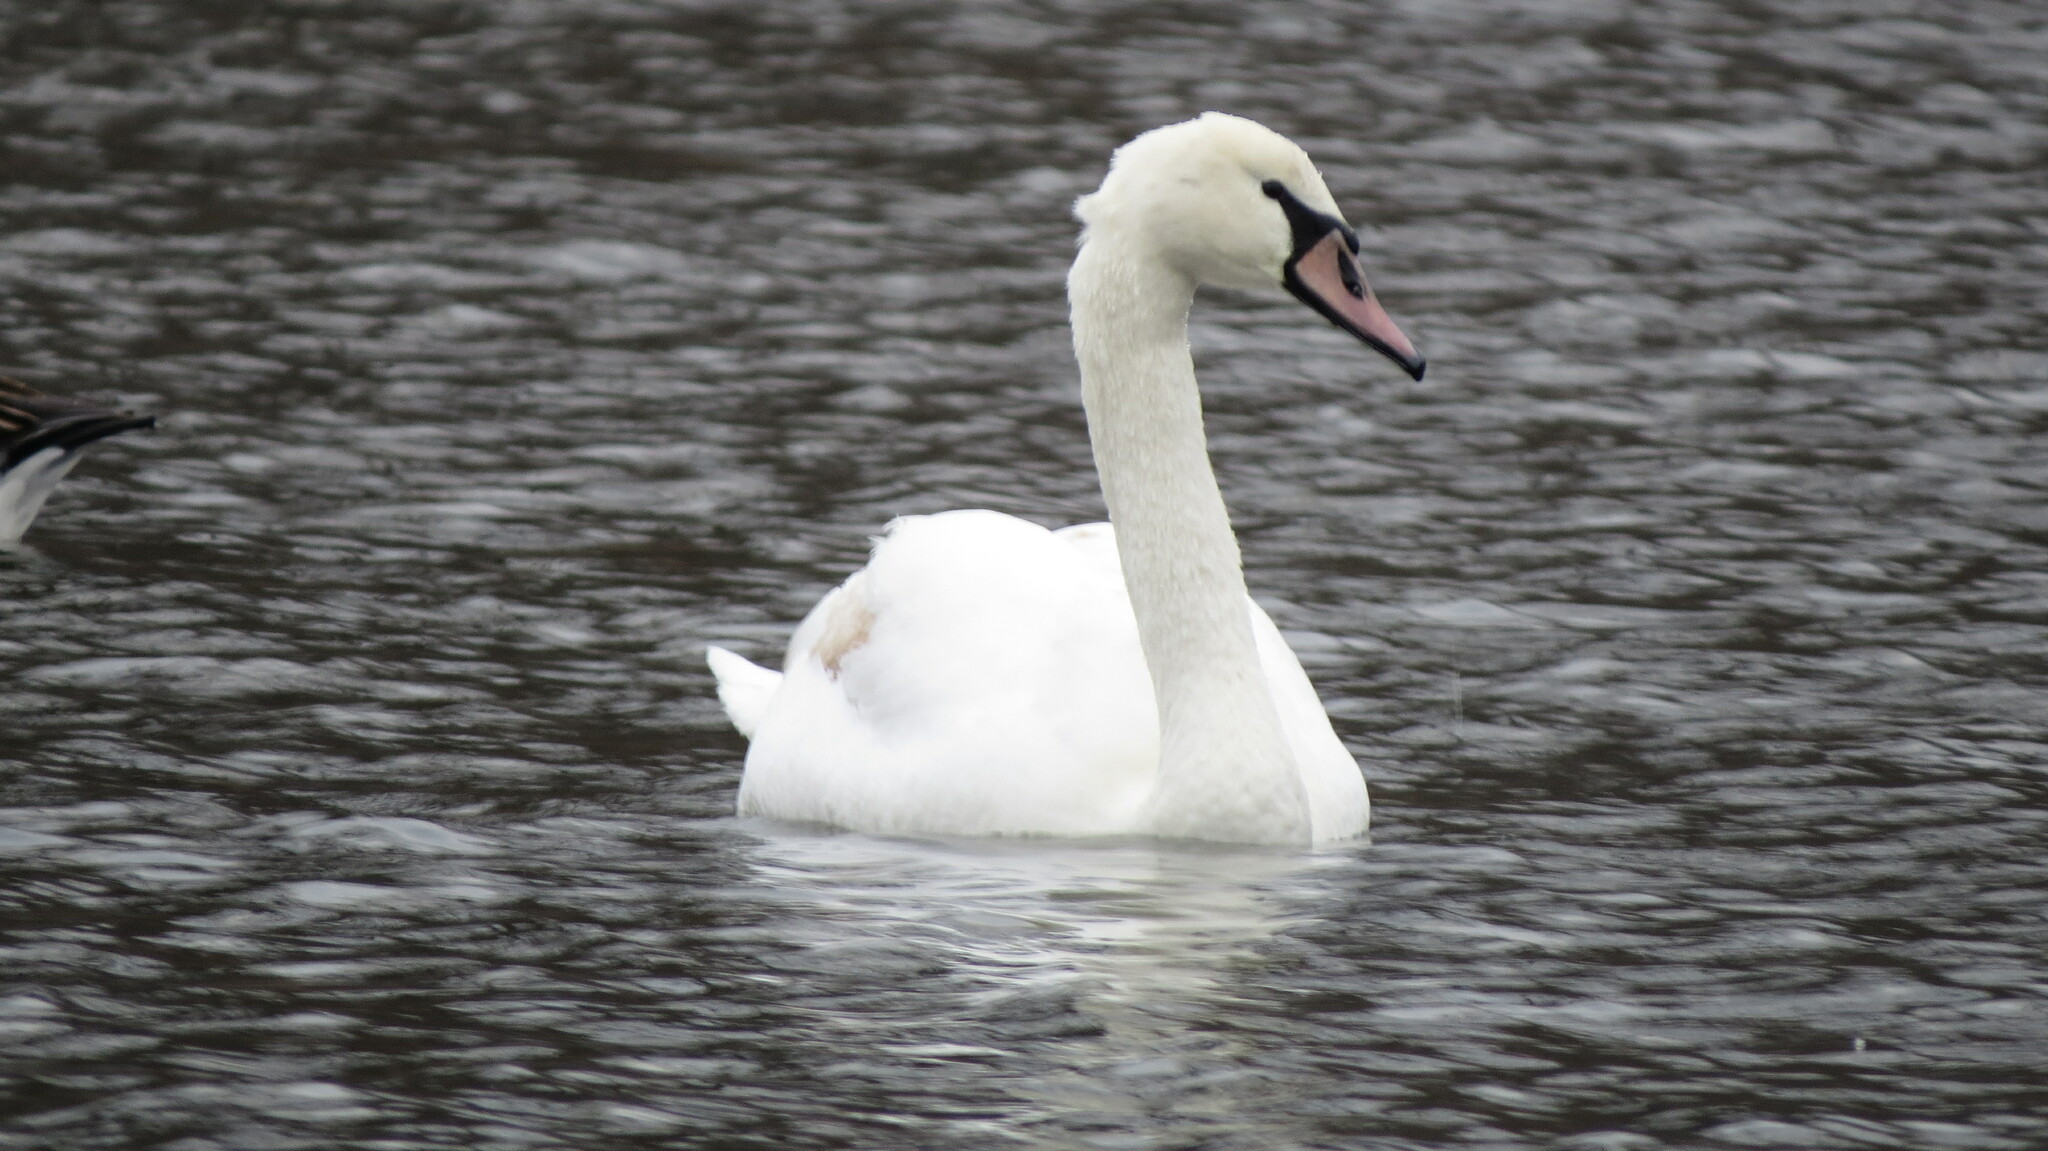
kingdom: Animalia
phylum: Chordata
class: Aves
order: Anseriformes
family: Anatidae
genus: Cygnus
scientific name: Cygnus olor
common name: Mute swan
